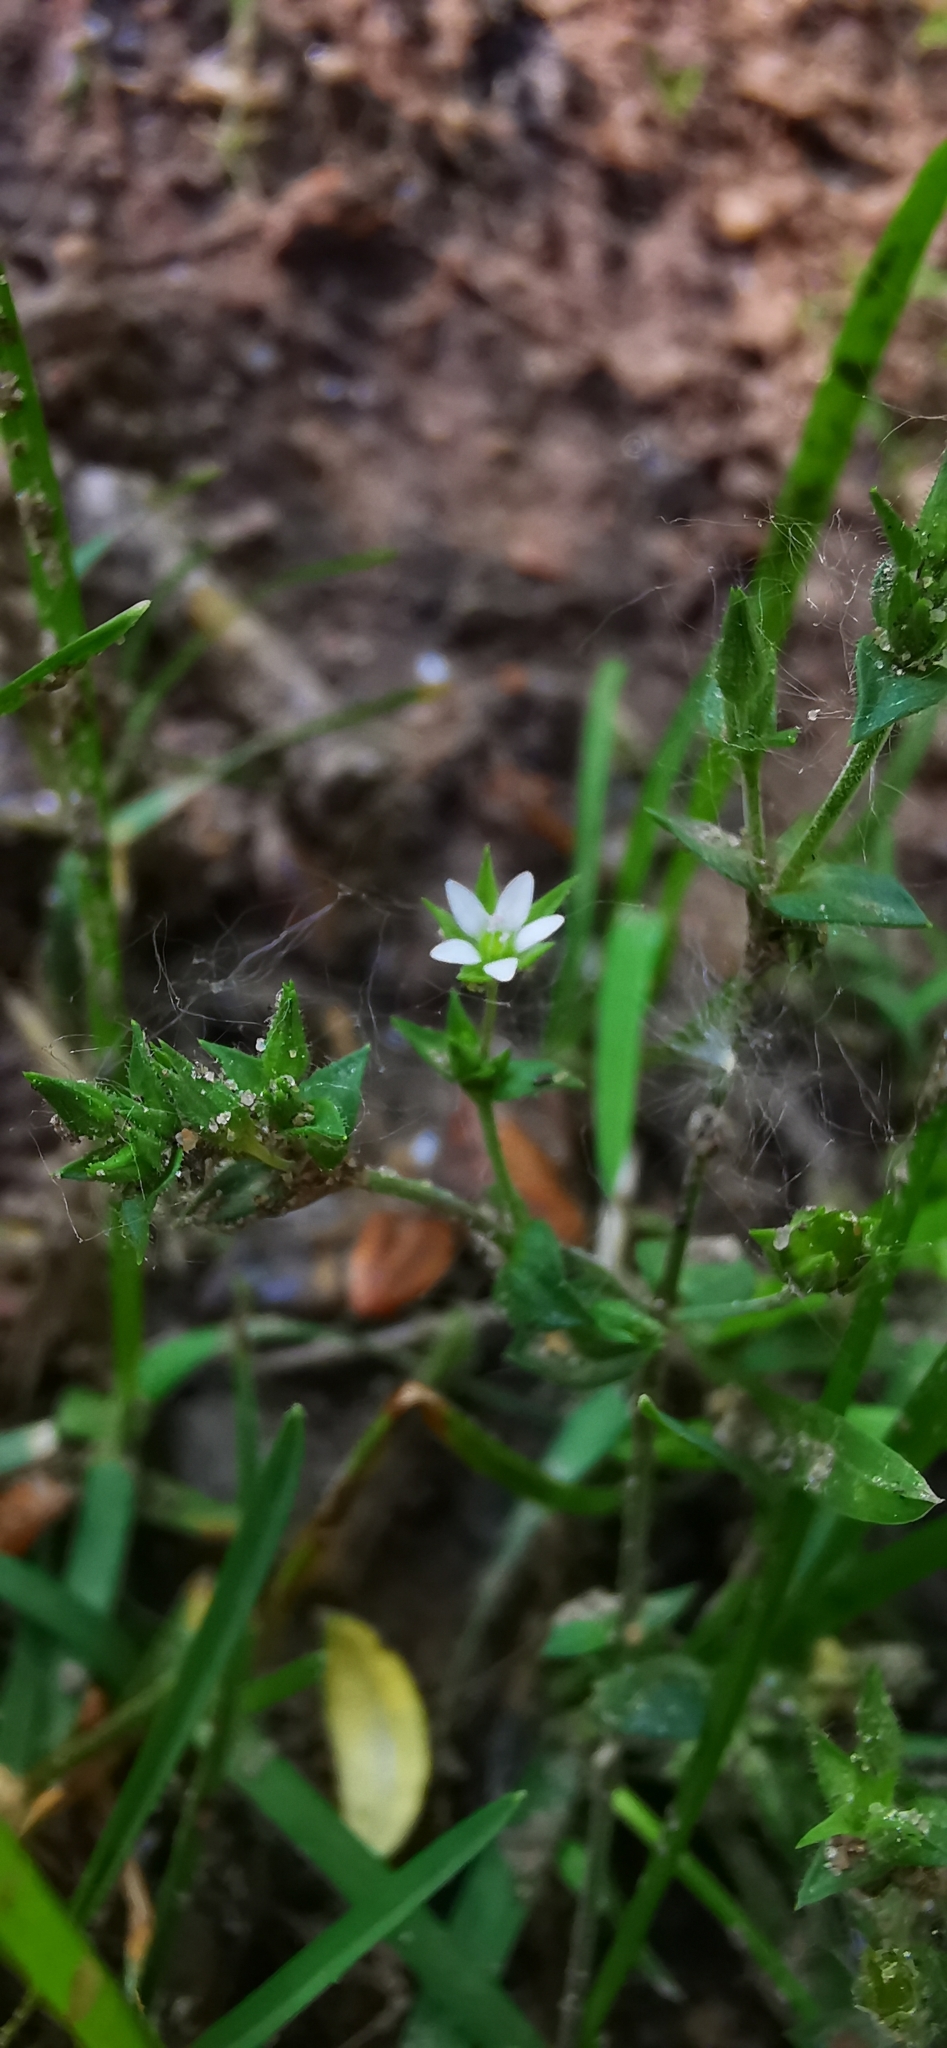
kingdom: Plantae
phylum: Tracheophyta
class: Magnoliopsida
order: Caryophyllales
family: Caryophyllaceae
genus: Arenaria
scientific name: Arenaria serpyllifolia
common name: Thyme-leaved sandwort
